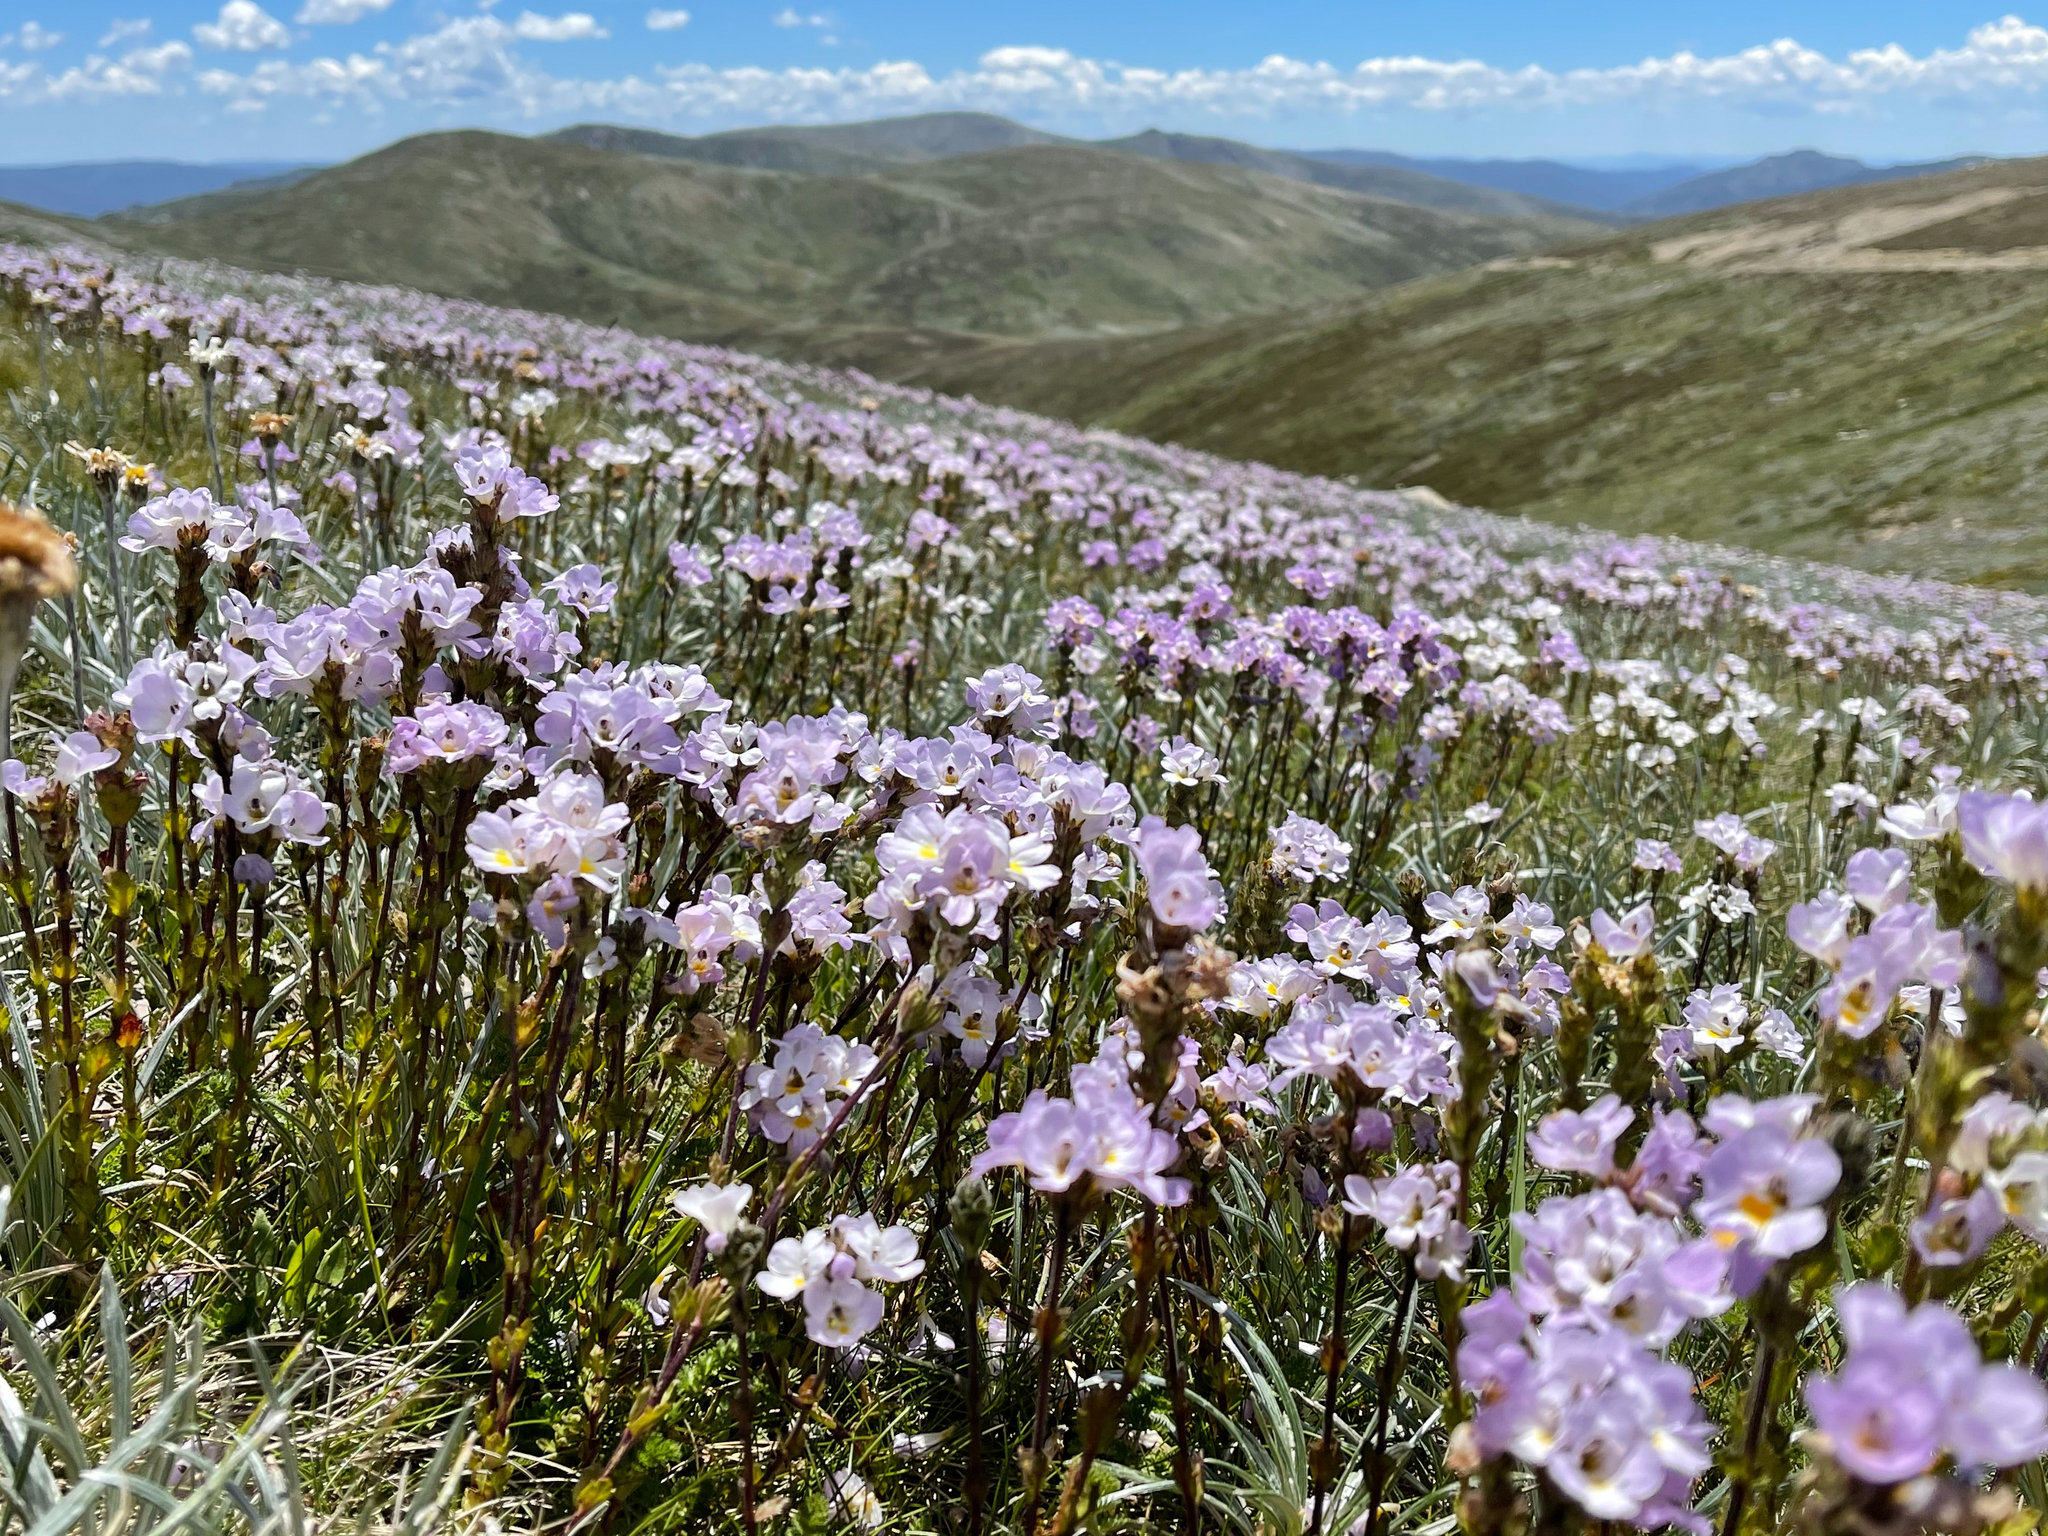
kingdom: Plantae
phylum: Tracheophyta
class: Magnoliopsida
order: Lamiales
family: Orobanchaceae
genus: Euphrasia
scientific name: Euphrasia collina
